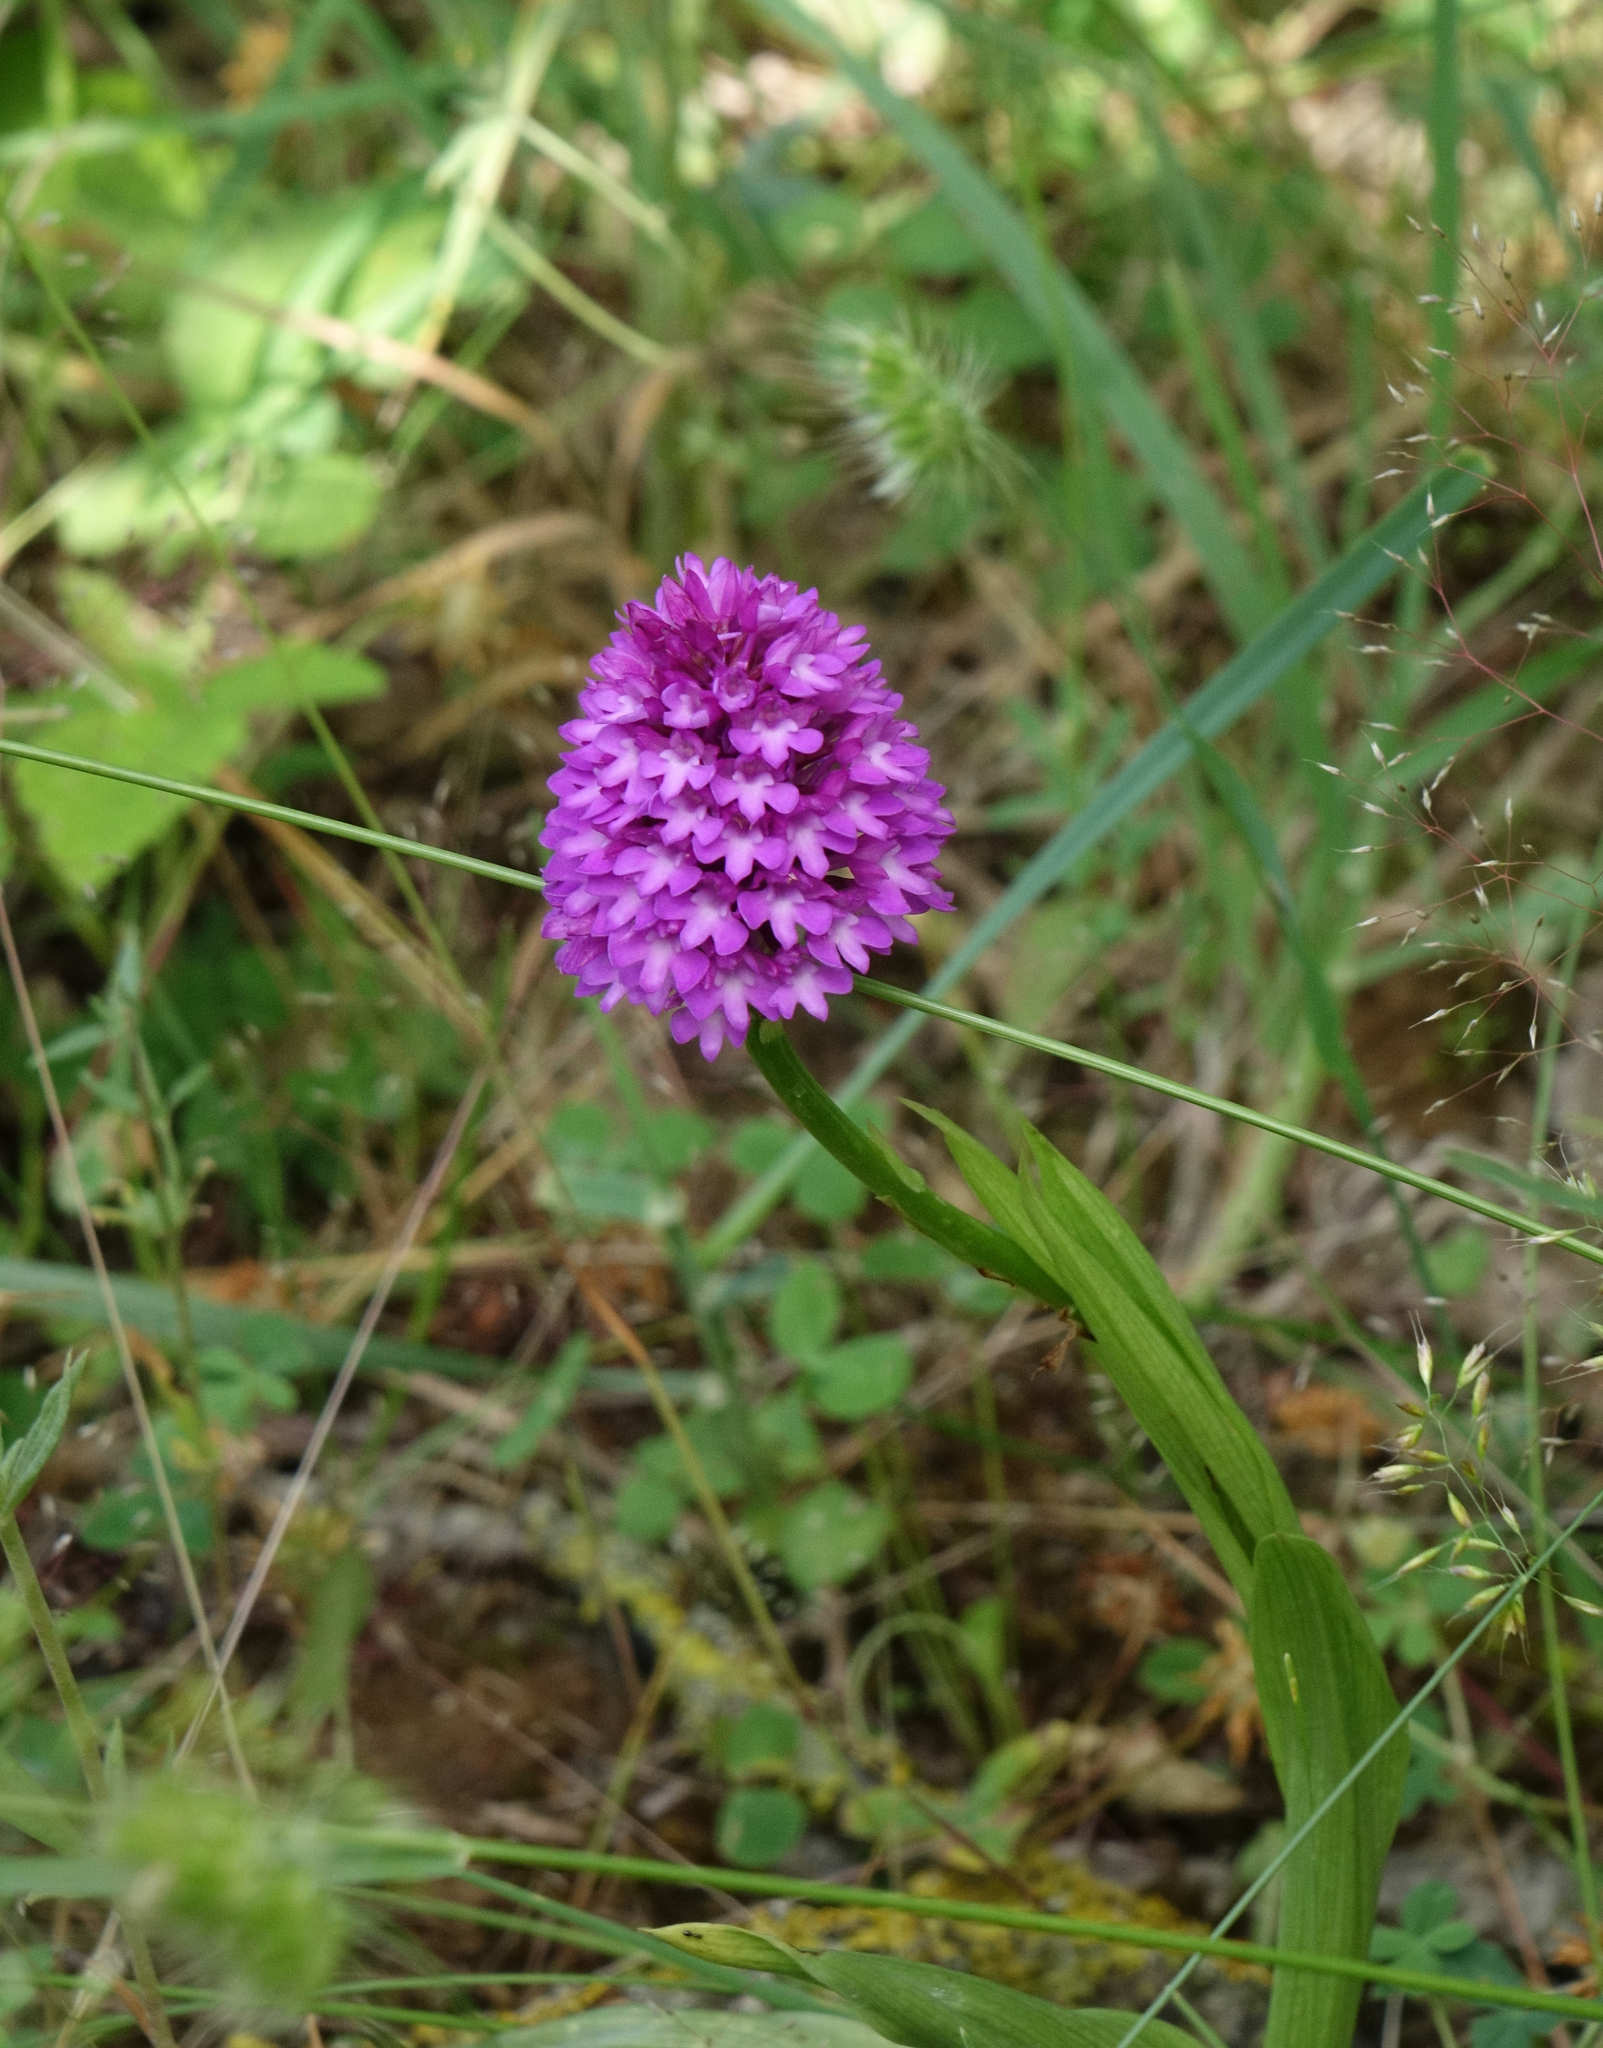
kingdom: Plantae
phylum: Tracheophyta
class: Liliopsida
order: Asparagales
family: Orchidaceae
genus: Anacamptis
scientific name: Anacamptis pyramidalis
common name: Pyramidal orchid
